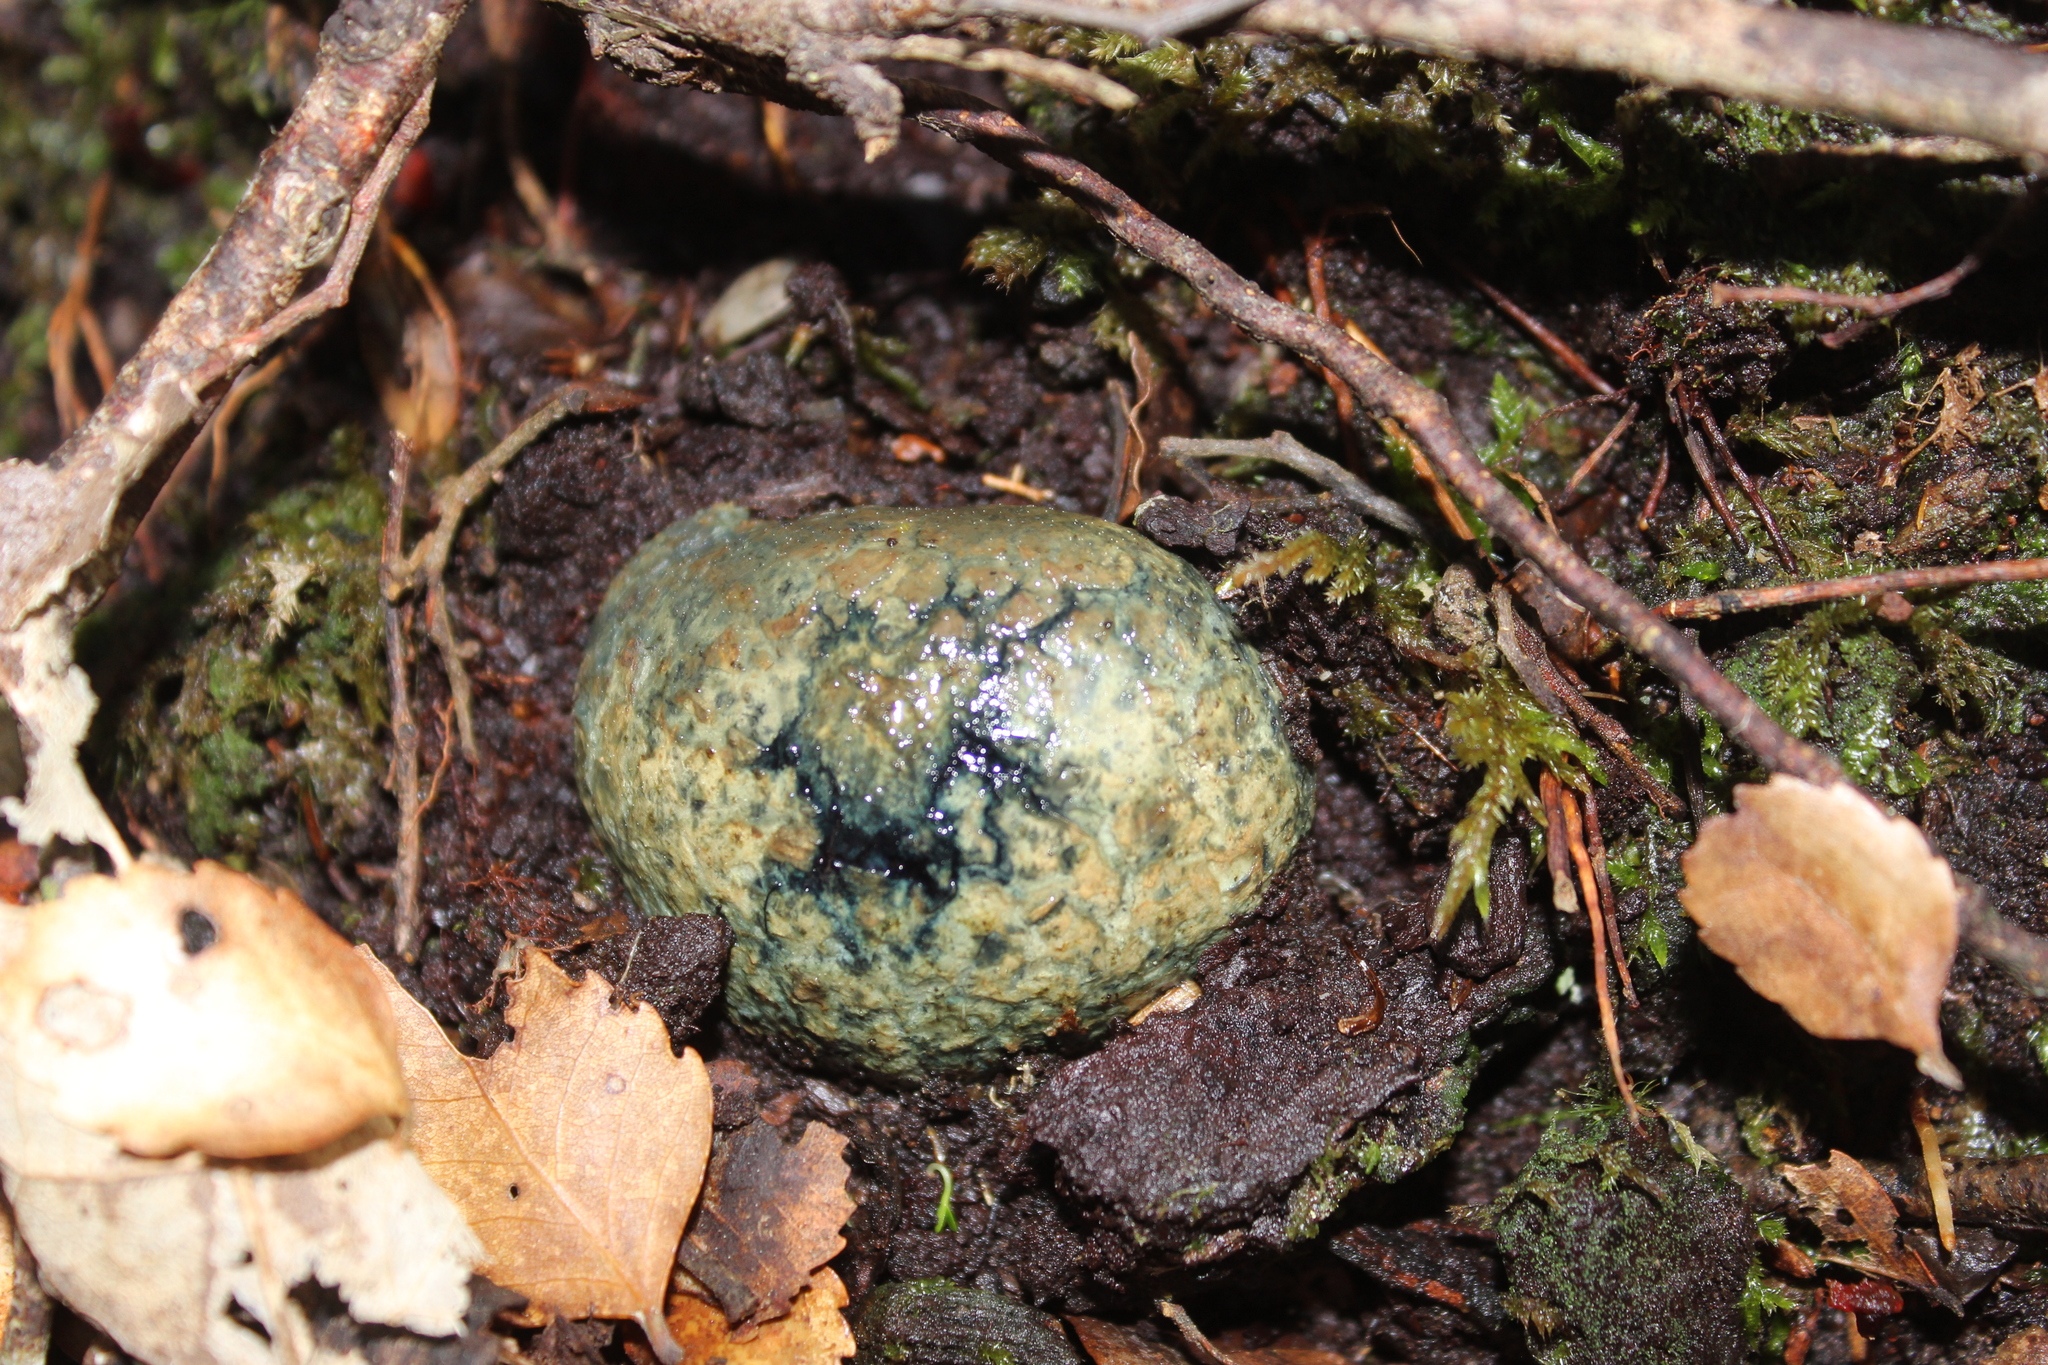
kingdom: Fungi
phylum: Basidiomycota
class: Agaricomycetes
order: Boletales
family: Boletaceae
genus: Leccinum
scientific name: Leccinum pachyderme
